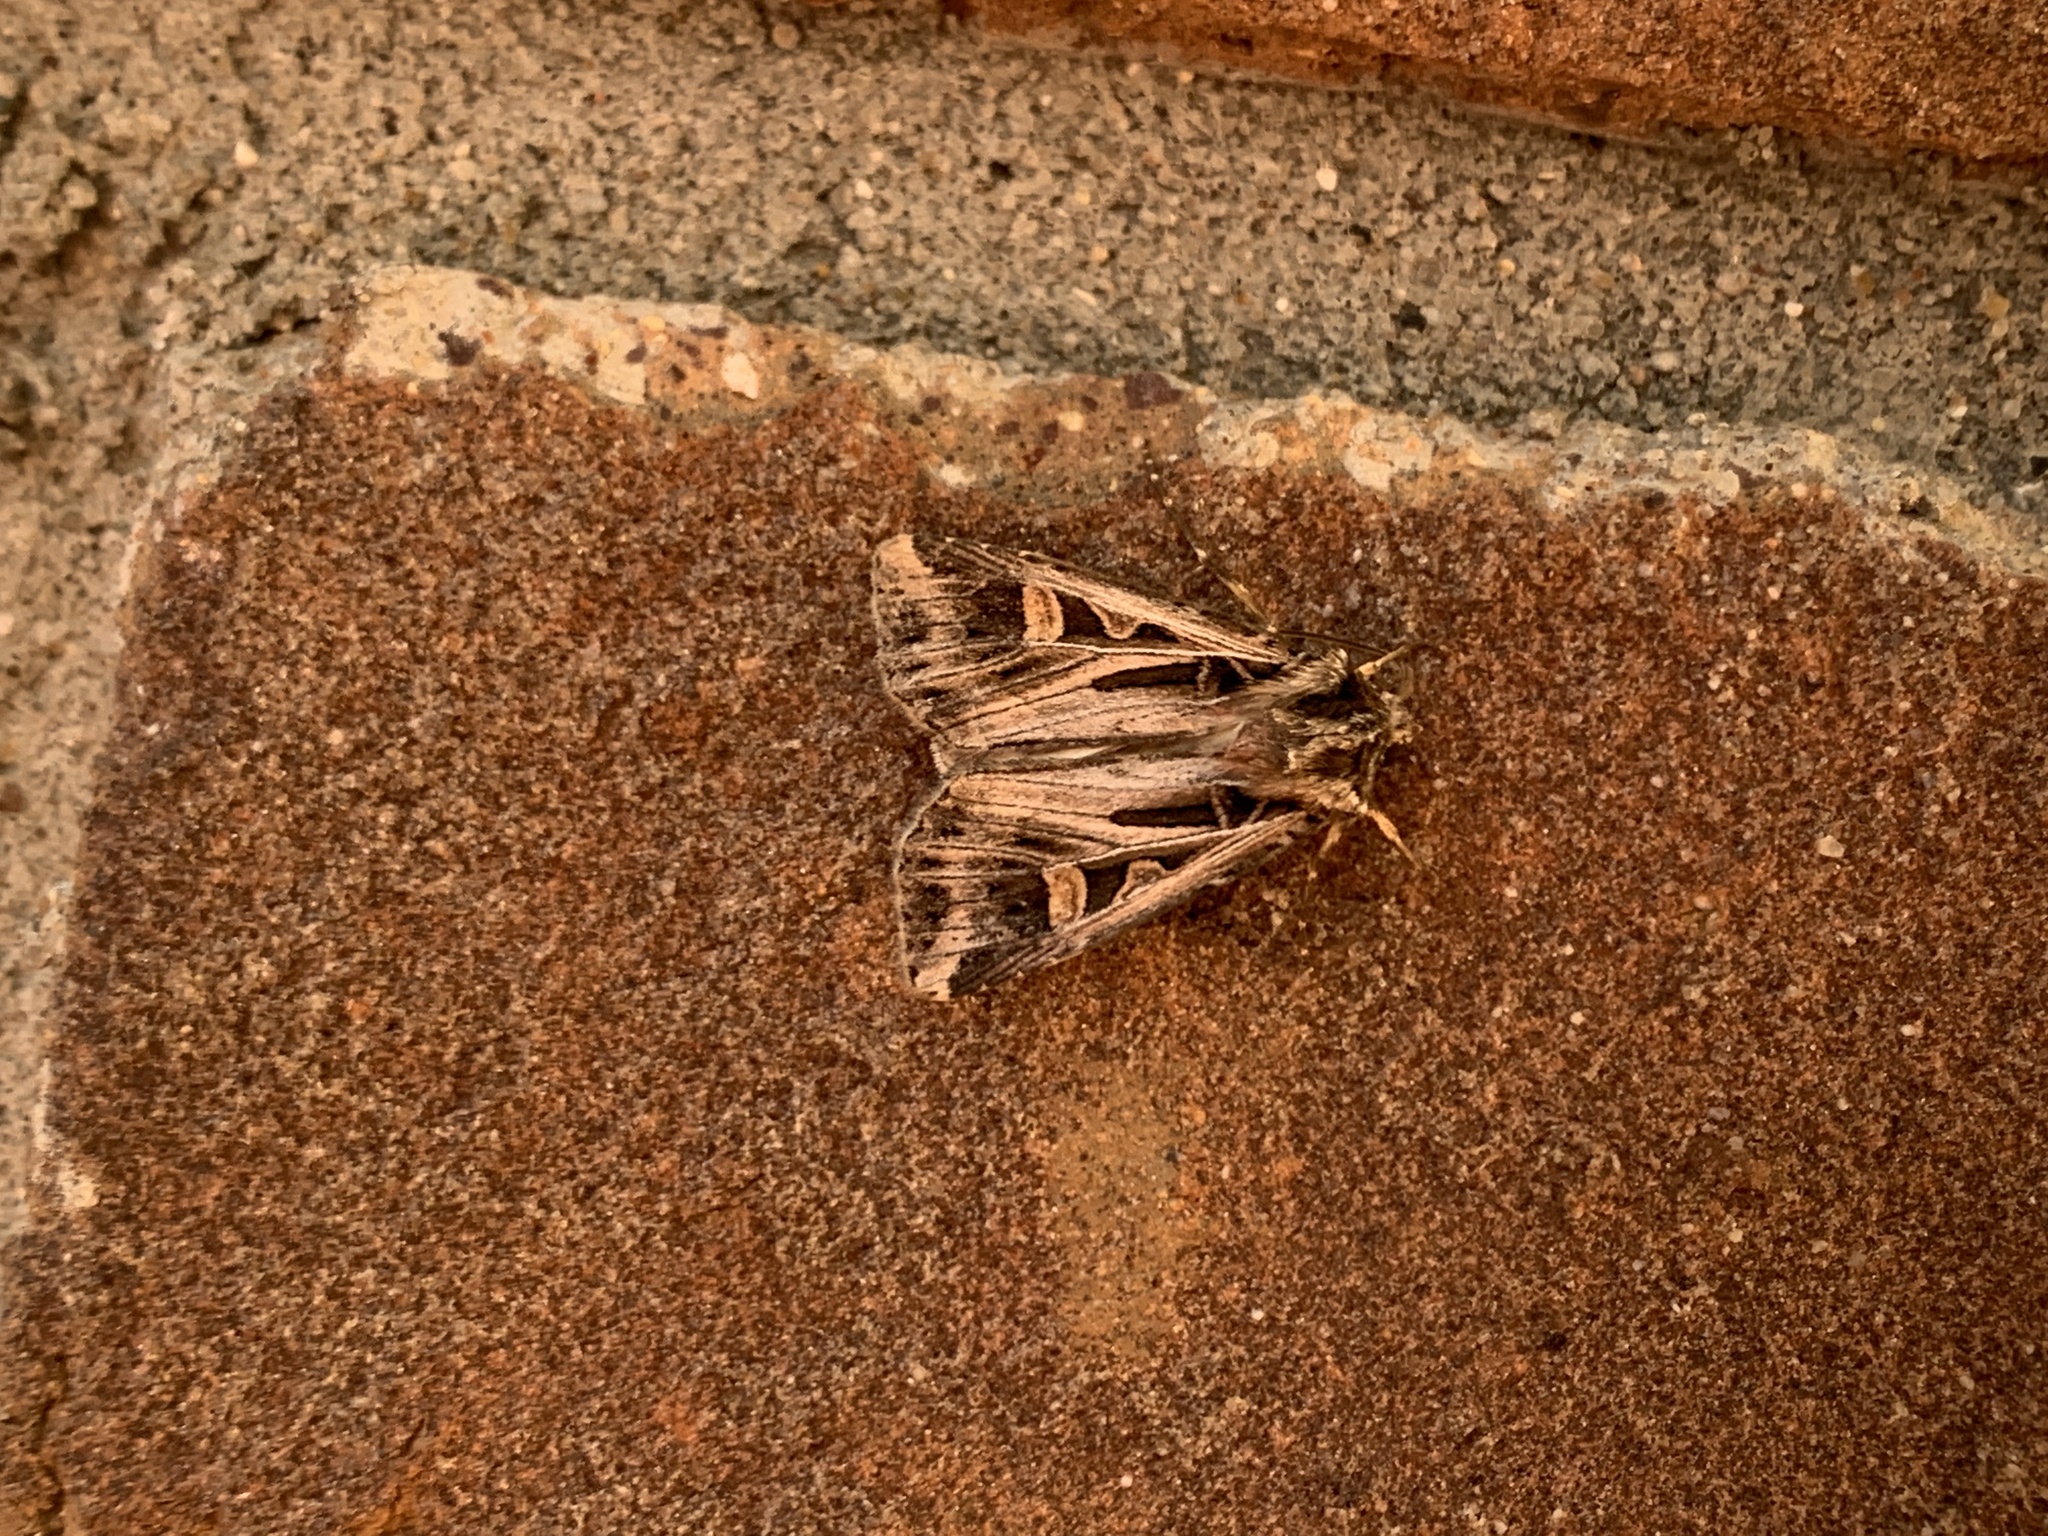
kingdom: Animalia
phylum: Arthropoda
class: Insecta
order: Lepidoptera
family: Noctuidae
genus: Feltia
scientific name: Feltia jaculifera
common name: Dingy cutworm moth
